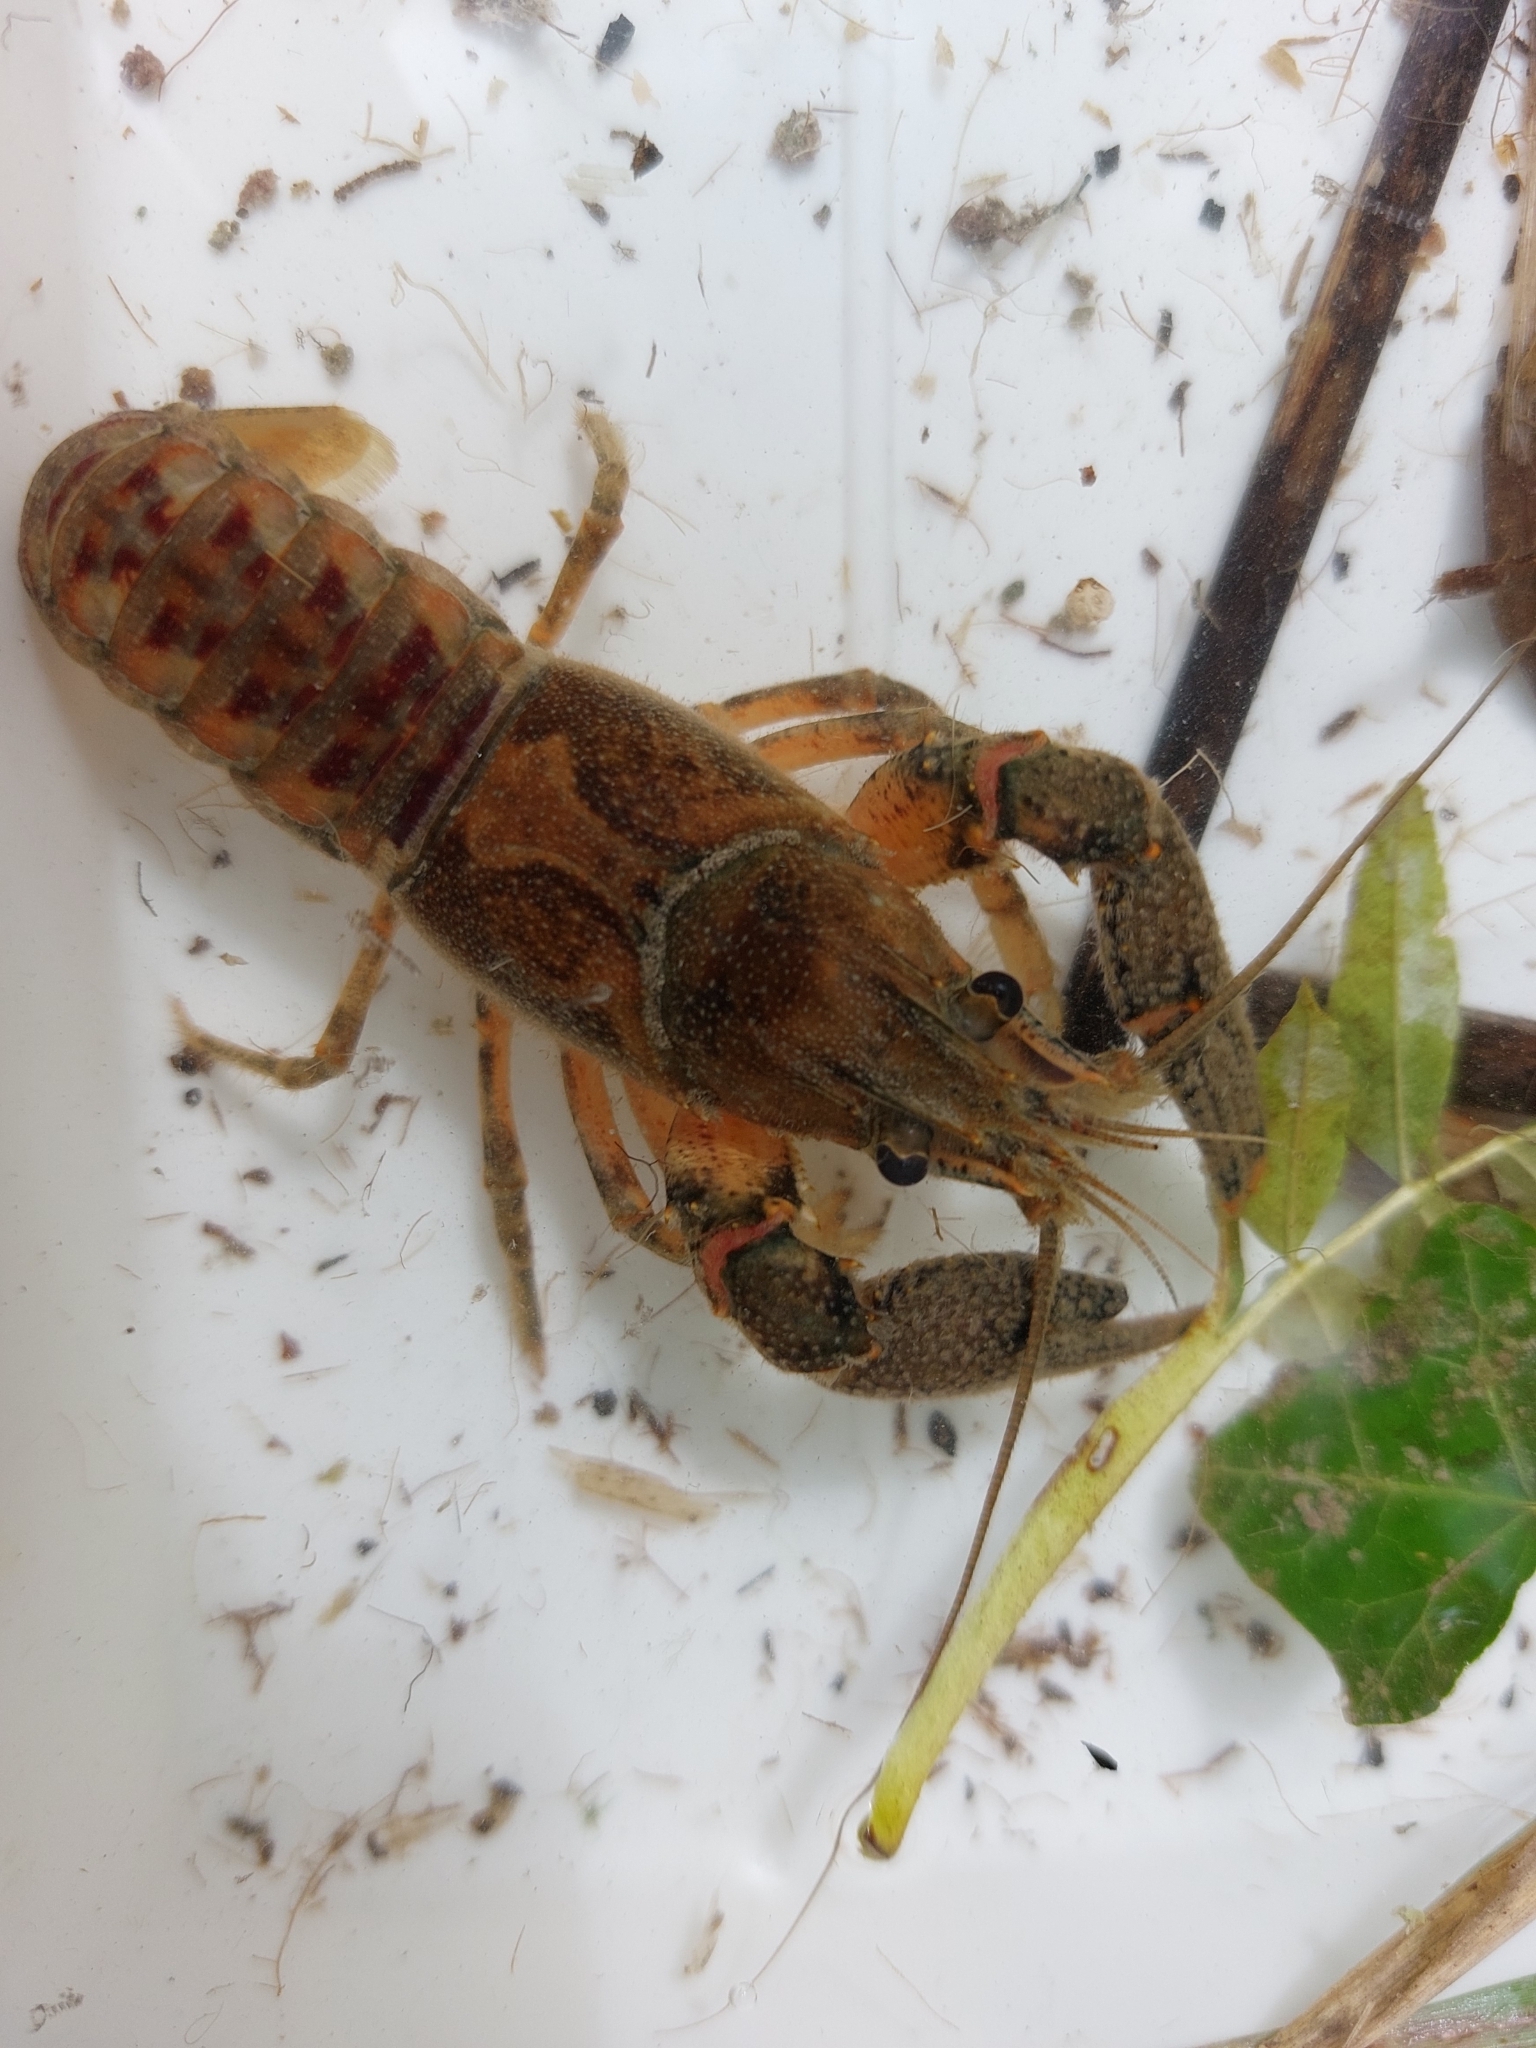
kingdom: Animalia
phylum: Arthropoda
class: Malacostraca
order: Decapoda
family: Cambaridae
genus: Faxonius
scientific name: Faxonius limosus
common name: American crayfish
